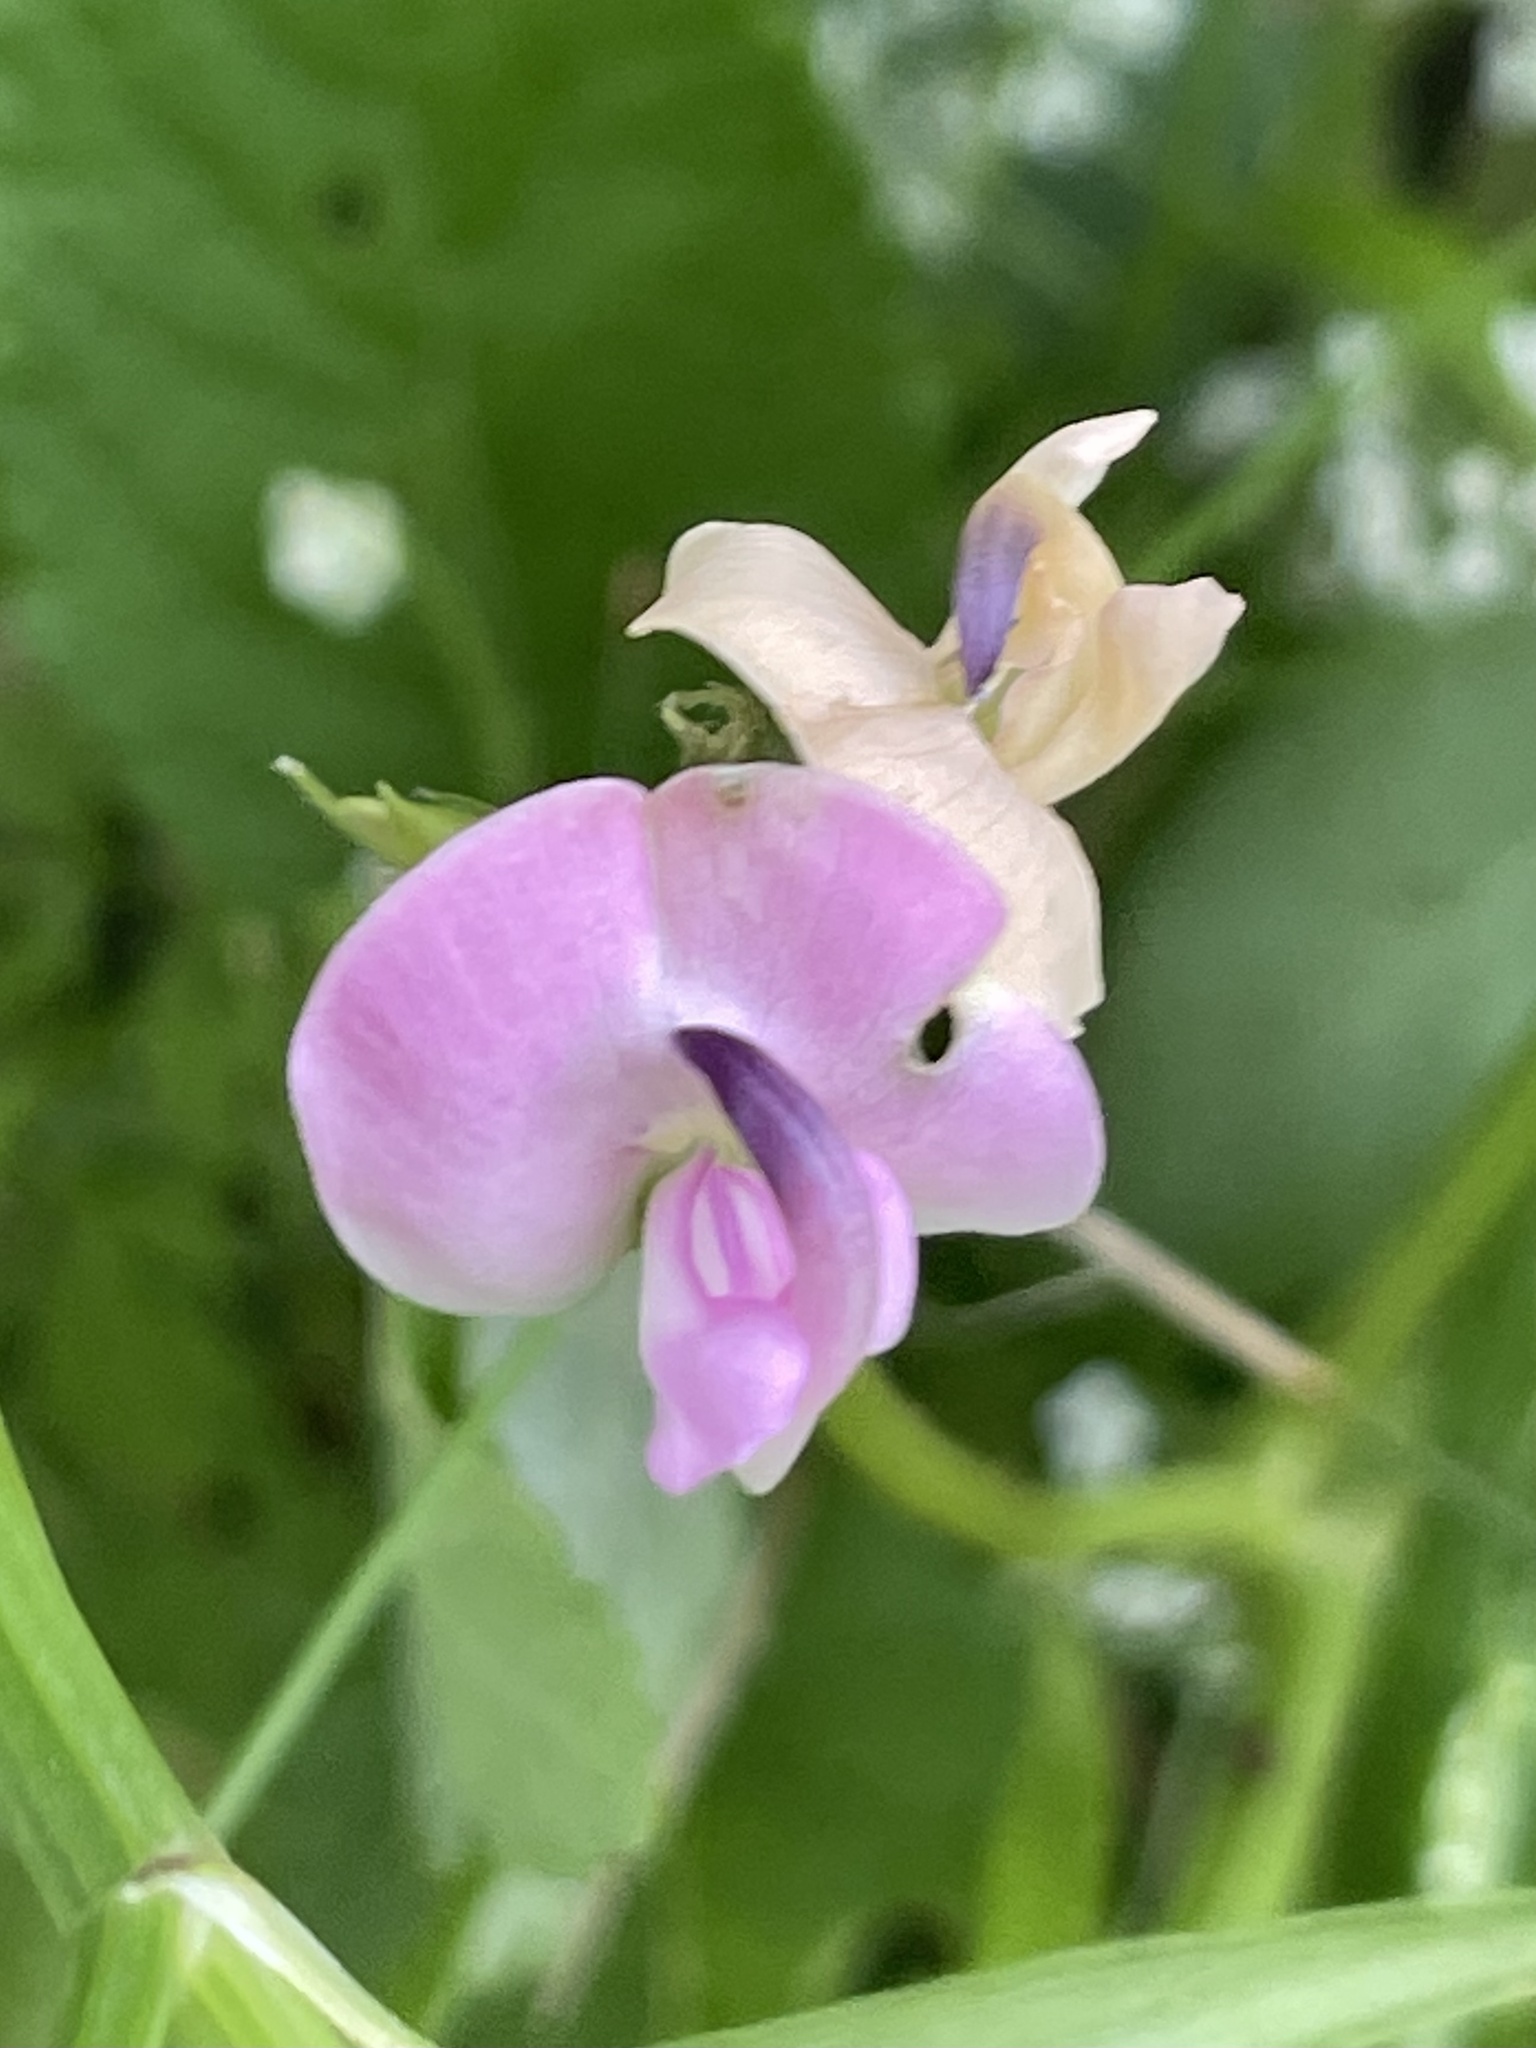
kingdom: Plantae
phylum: Tracheophyta
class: Magnoliopsida
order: Fabales
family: Fabaceae
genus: Strophostyles
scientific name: Strophostyles helvola
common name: Trailing wild bean
